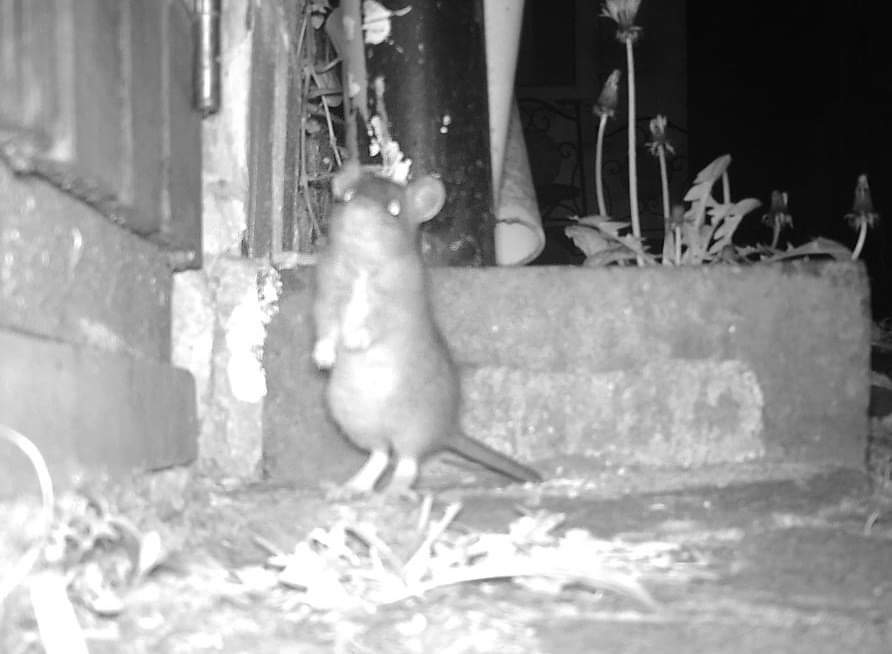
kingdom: Animalia
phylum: Chordata
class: Mammalia
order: Rodentia
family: Muridae
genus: Rattus
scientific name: Rattus norvegicus
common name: Brown rat
